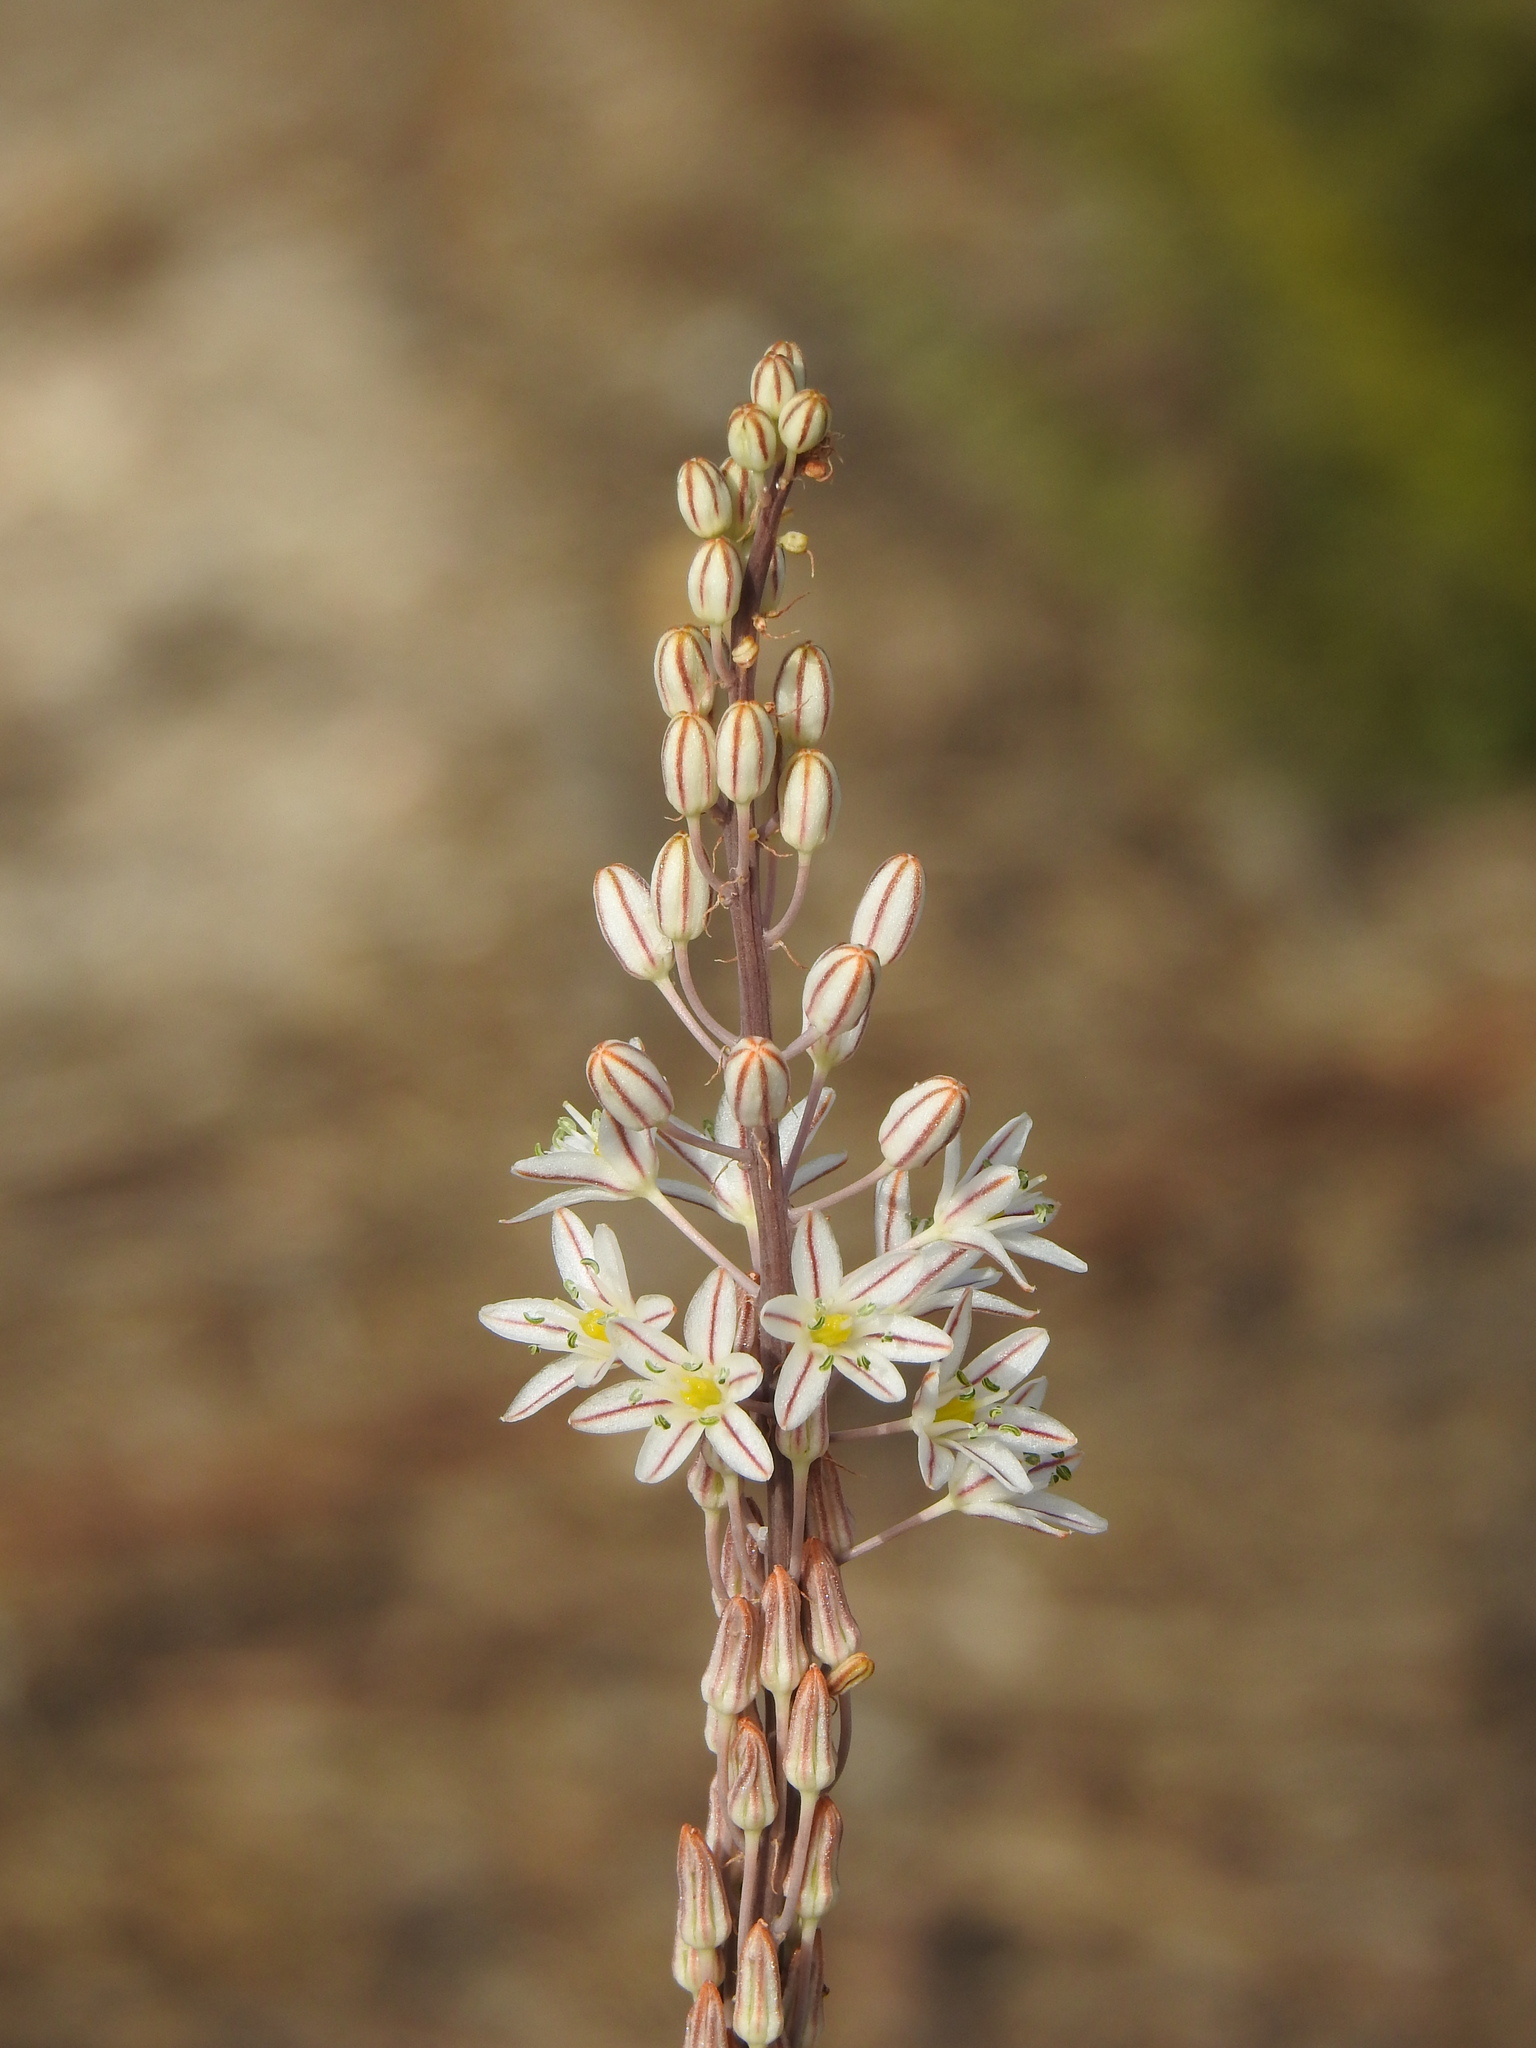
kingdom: Plantae
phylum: Tracheophyta
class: Liliopsida
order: Asparagales
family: Asparagaceae
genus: Drimia
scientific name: Drimia maritima
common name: Maritime squill
